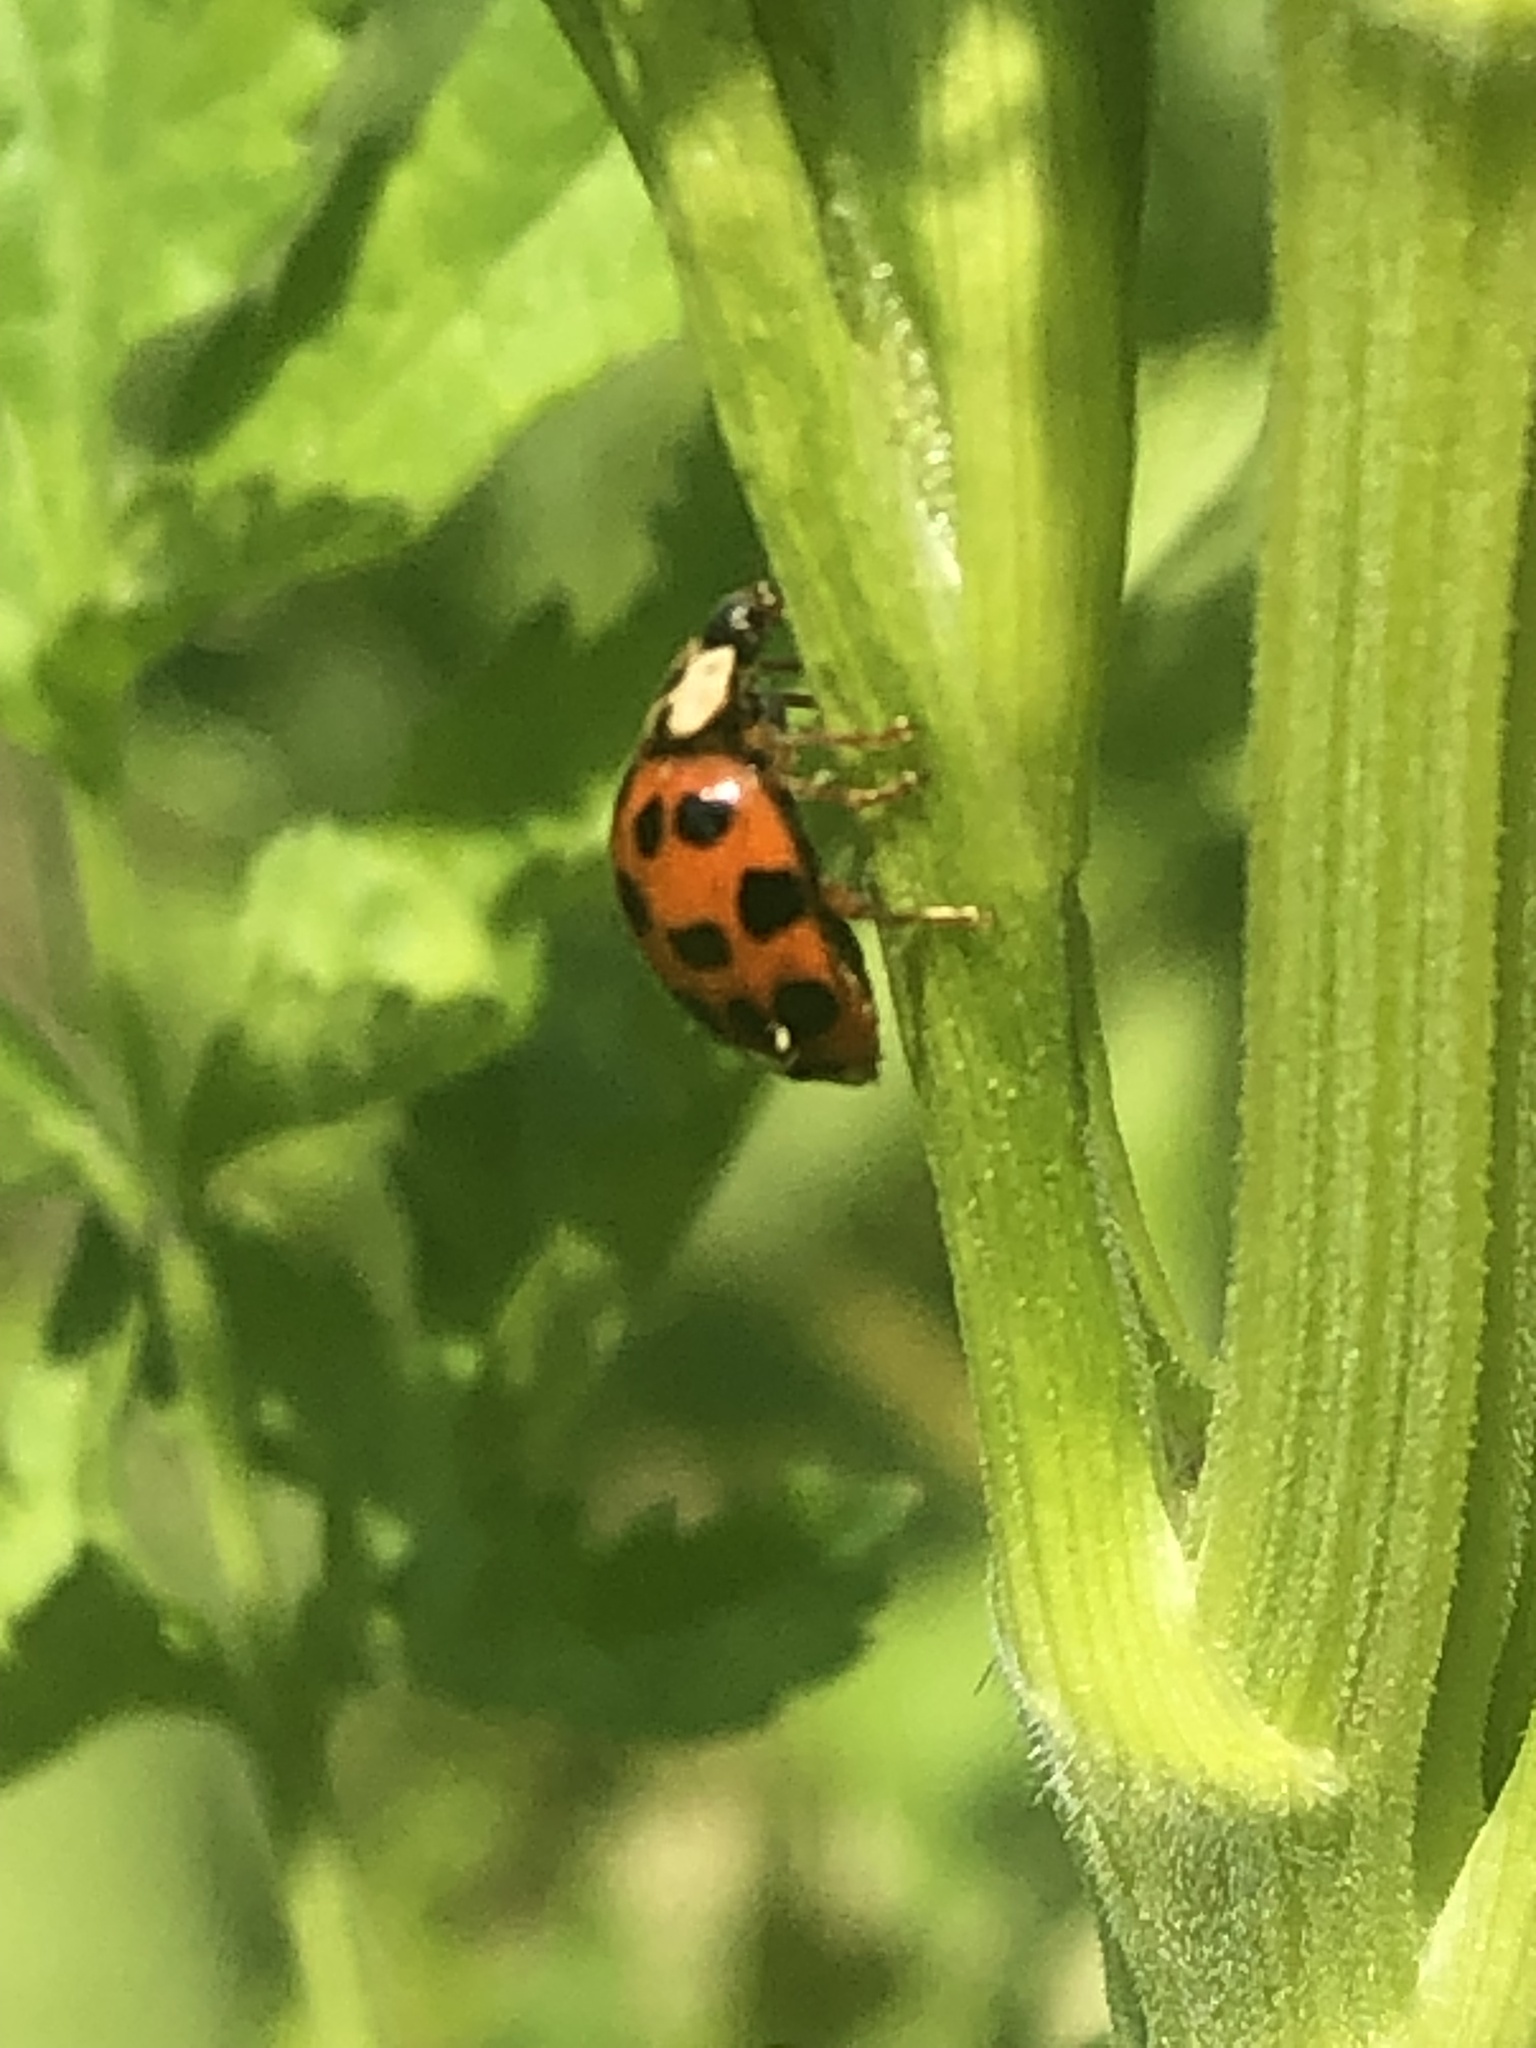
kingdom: Animalia
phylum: Arthropoda
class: Insecta
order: Coleoptera
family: Coccinellidae
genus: Harmonia
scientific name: Harmonia axyridis
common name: Harlequin ladybird
